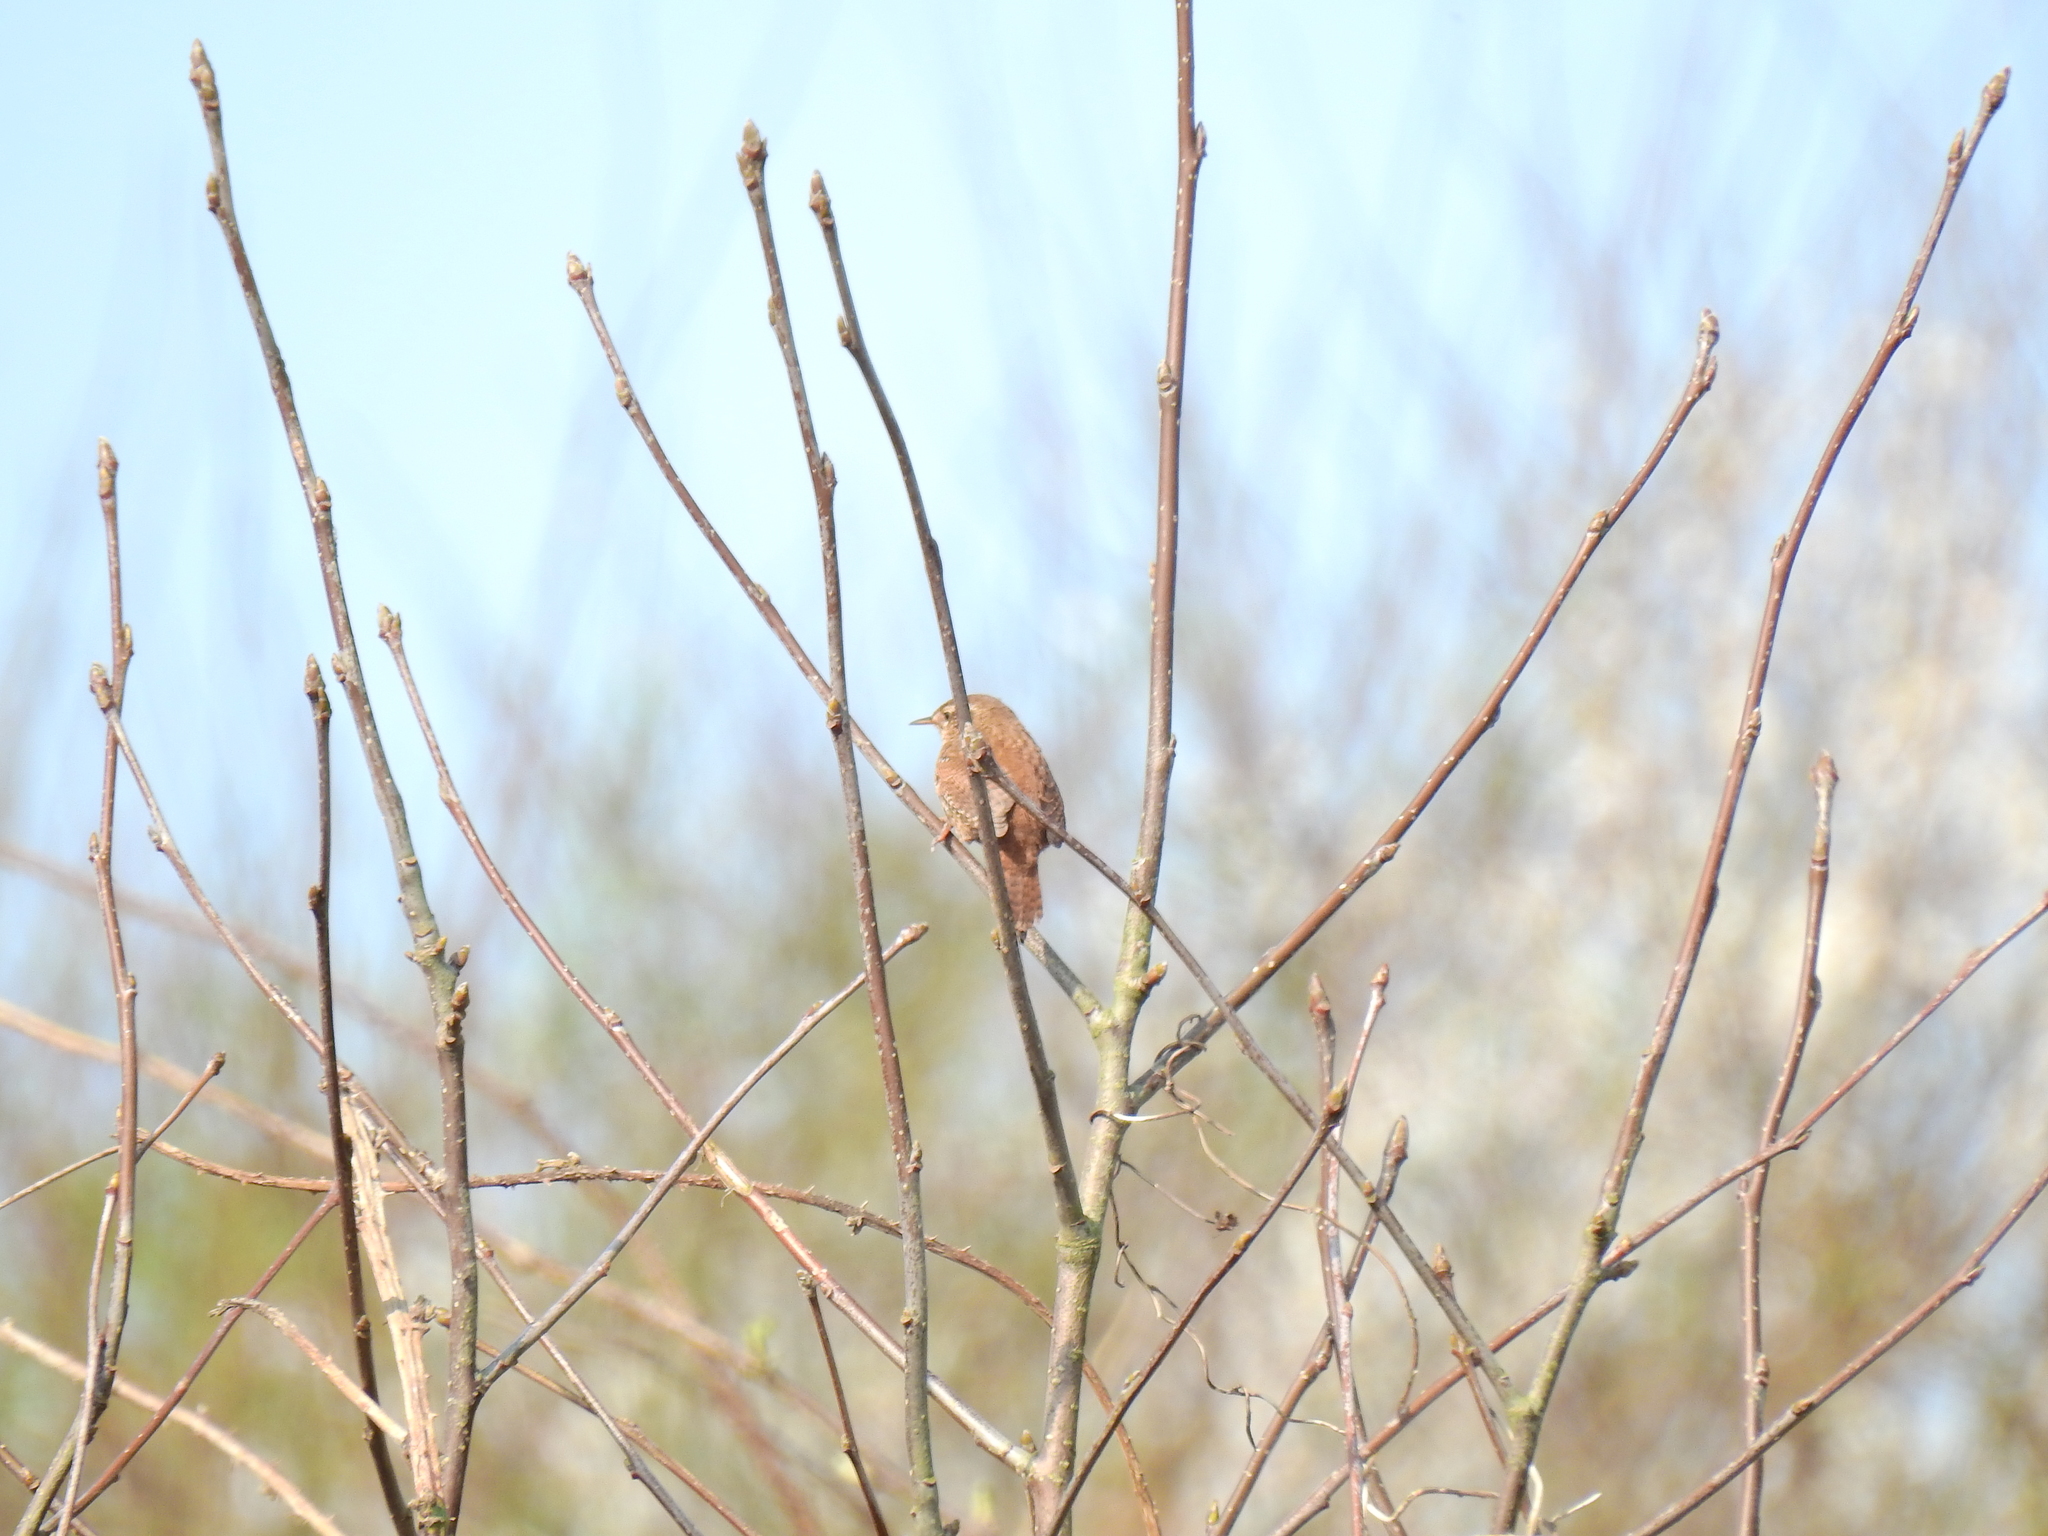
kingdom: Animalia
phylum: Chordata
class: Aves
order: Passeriformes
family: Troglodytidae
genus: Troglodytes
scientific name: Troglodytes troglodytes
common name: Eurasian wren
